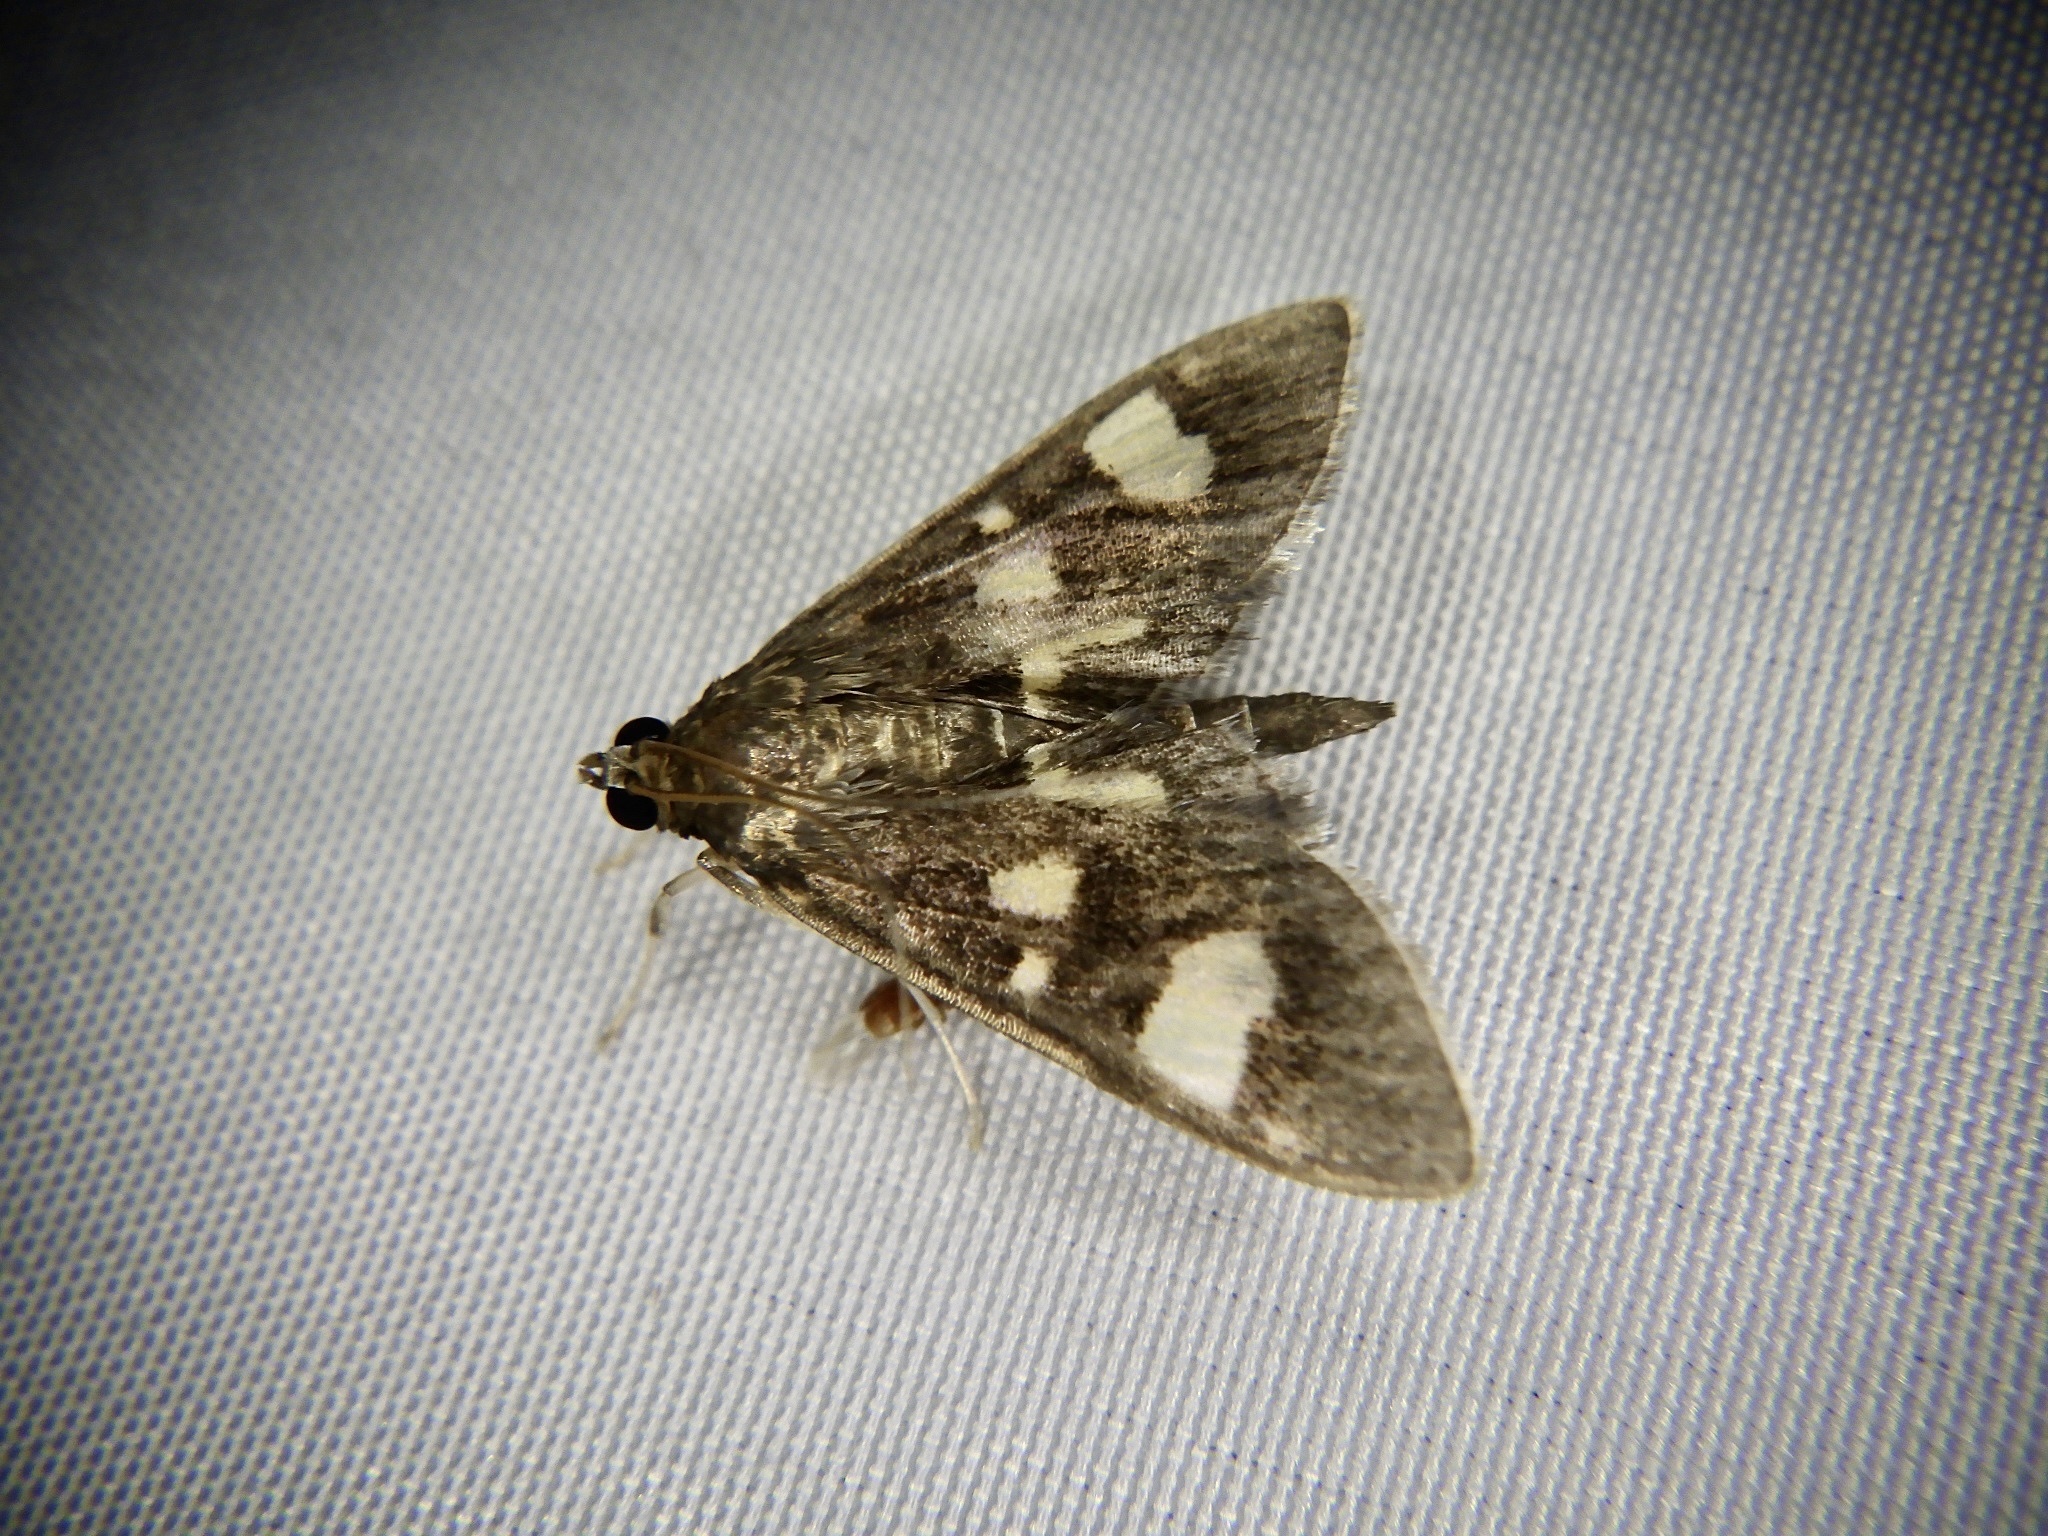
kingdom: Animalia
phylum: Arthropoda
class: Insecta
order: Lepidoptera
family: Crambidae
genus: Uresiphita
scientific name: Uresiphita tricolor
